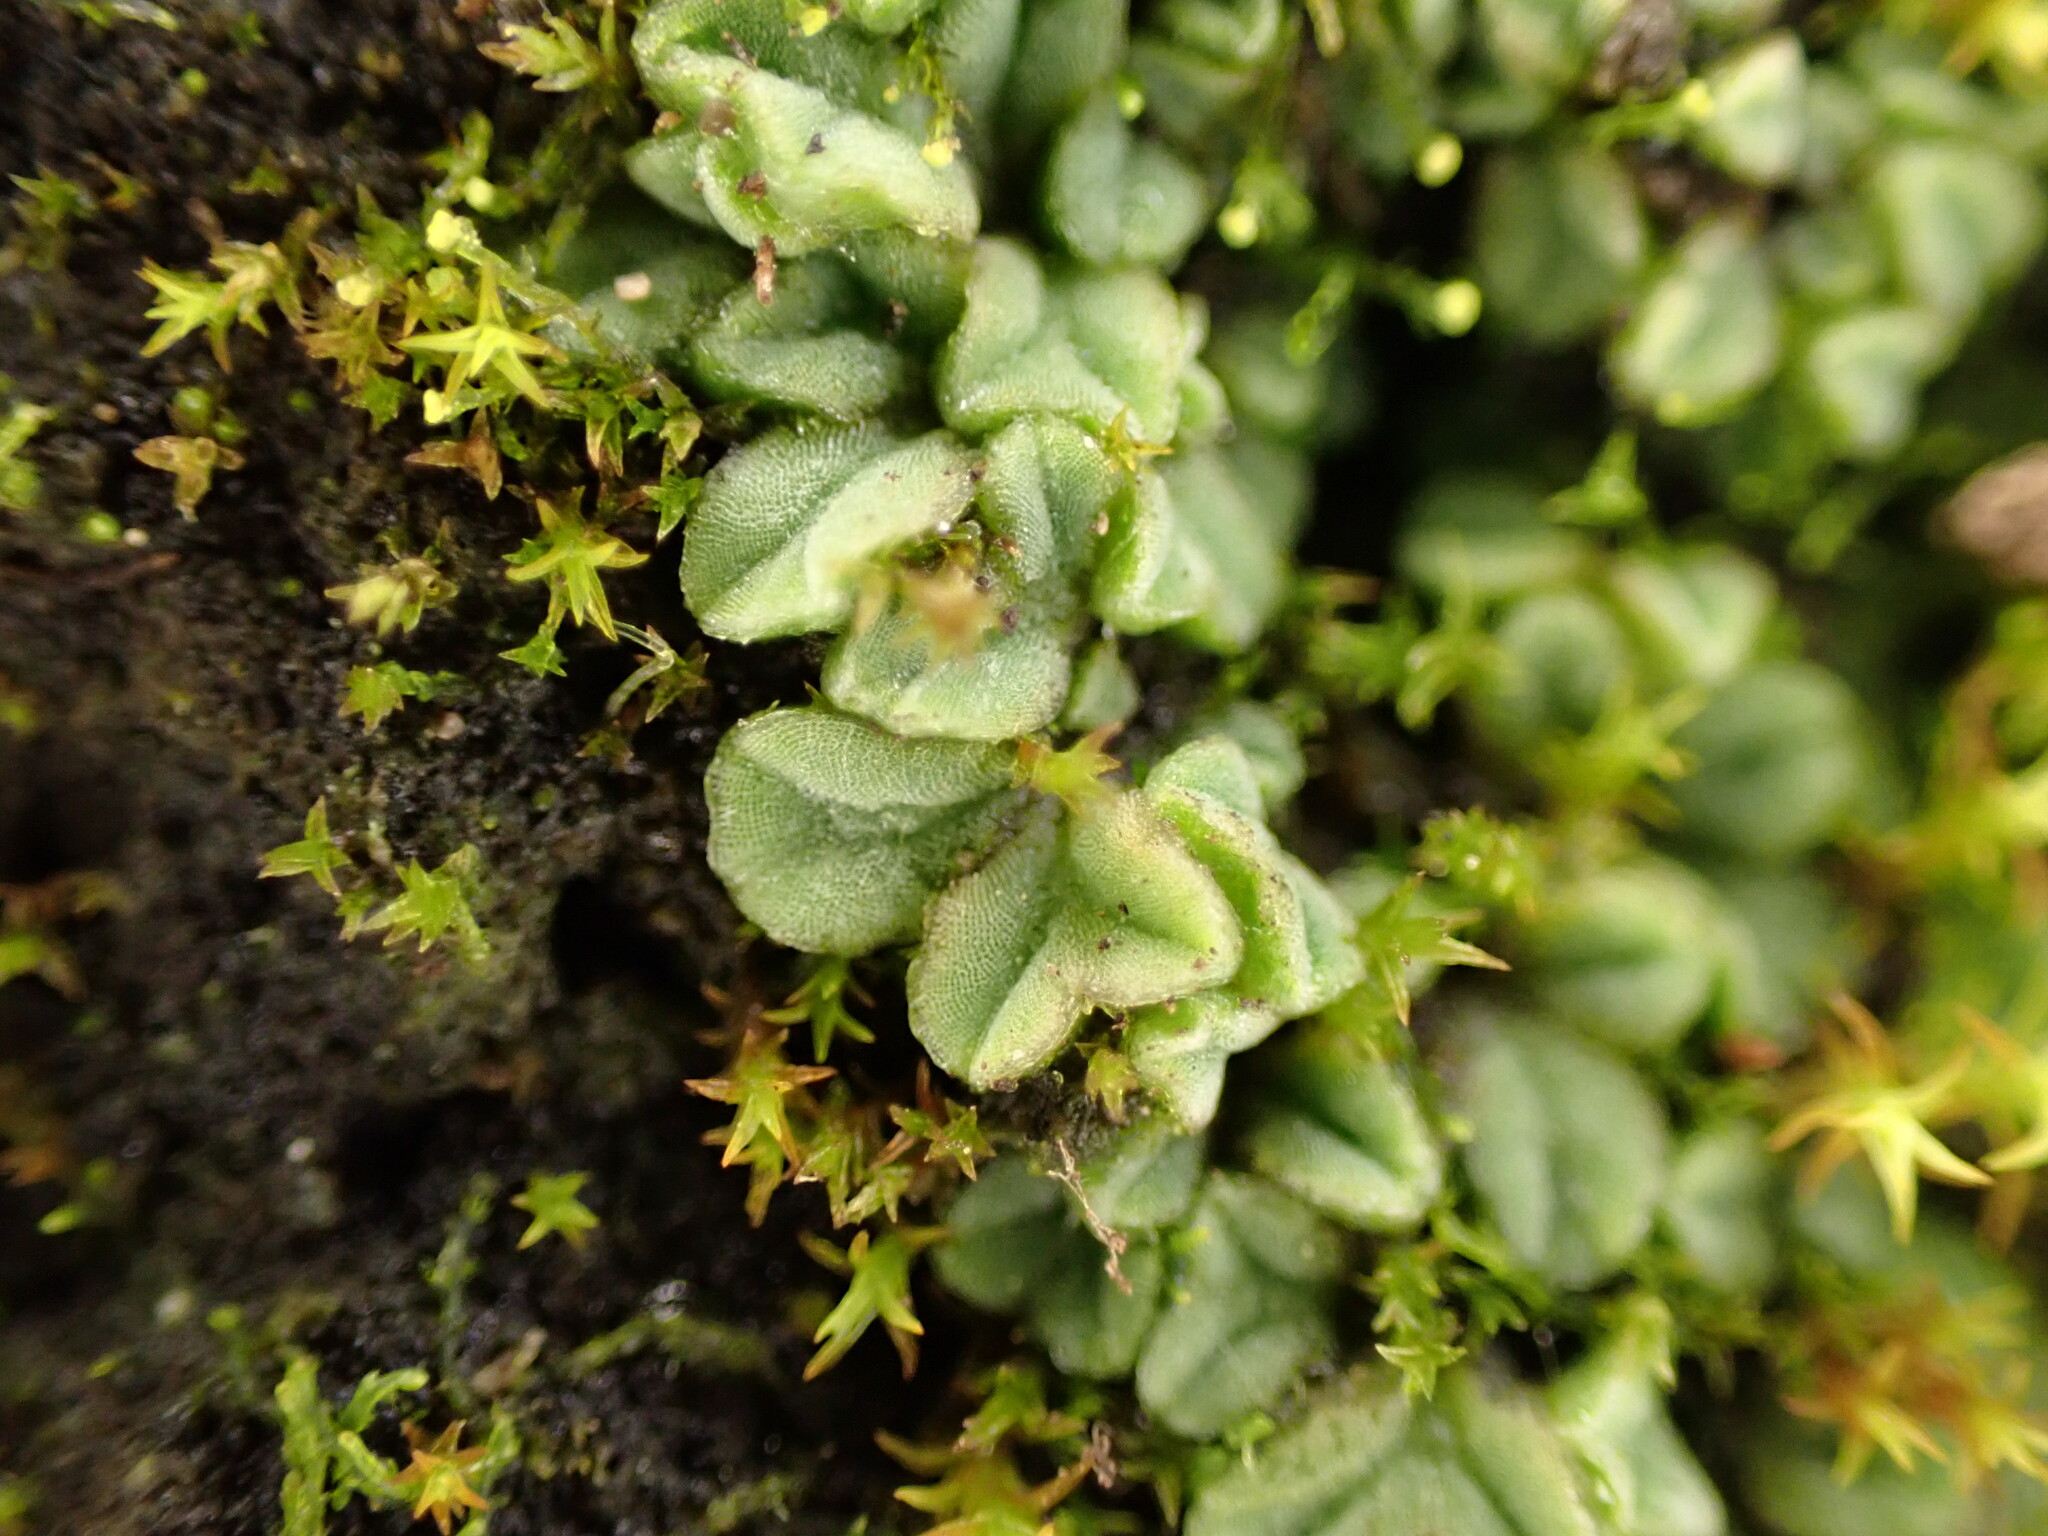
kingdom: Plantae
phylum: Marchantiophyta
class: Marchantiopsida
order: Marchantiales
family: Ricciaceae
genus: Riccia
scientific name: Riccia sorocarpa
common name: Common crystalwort
